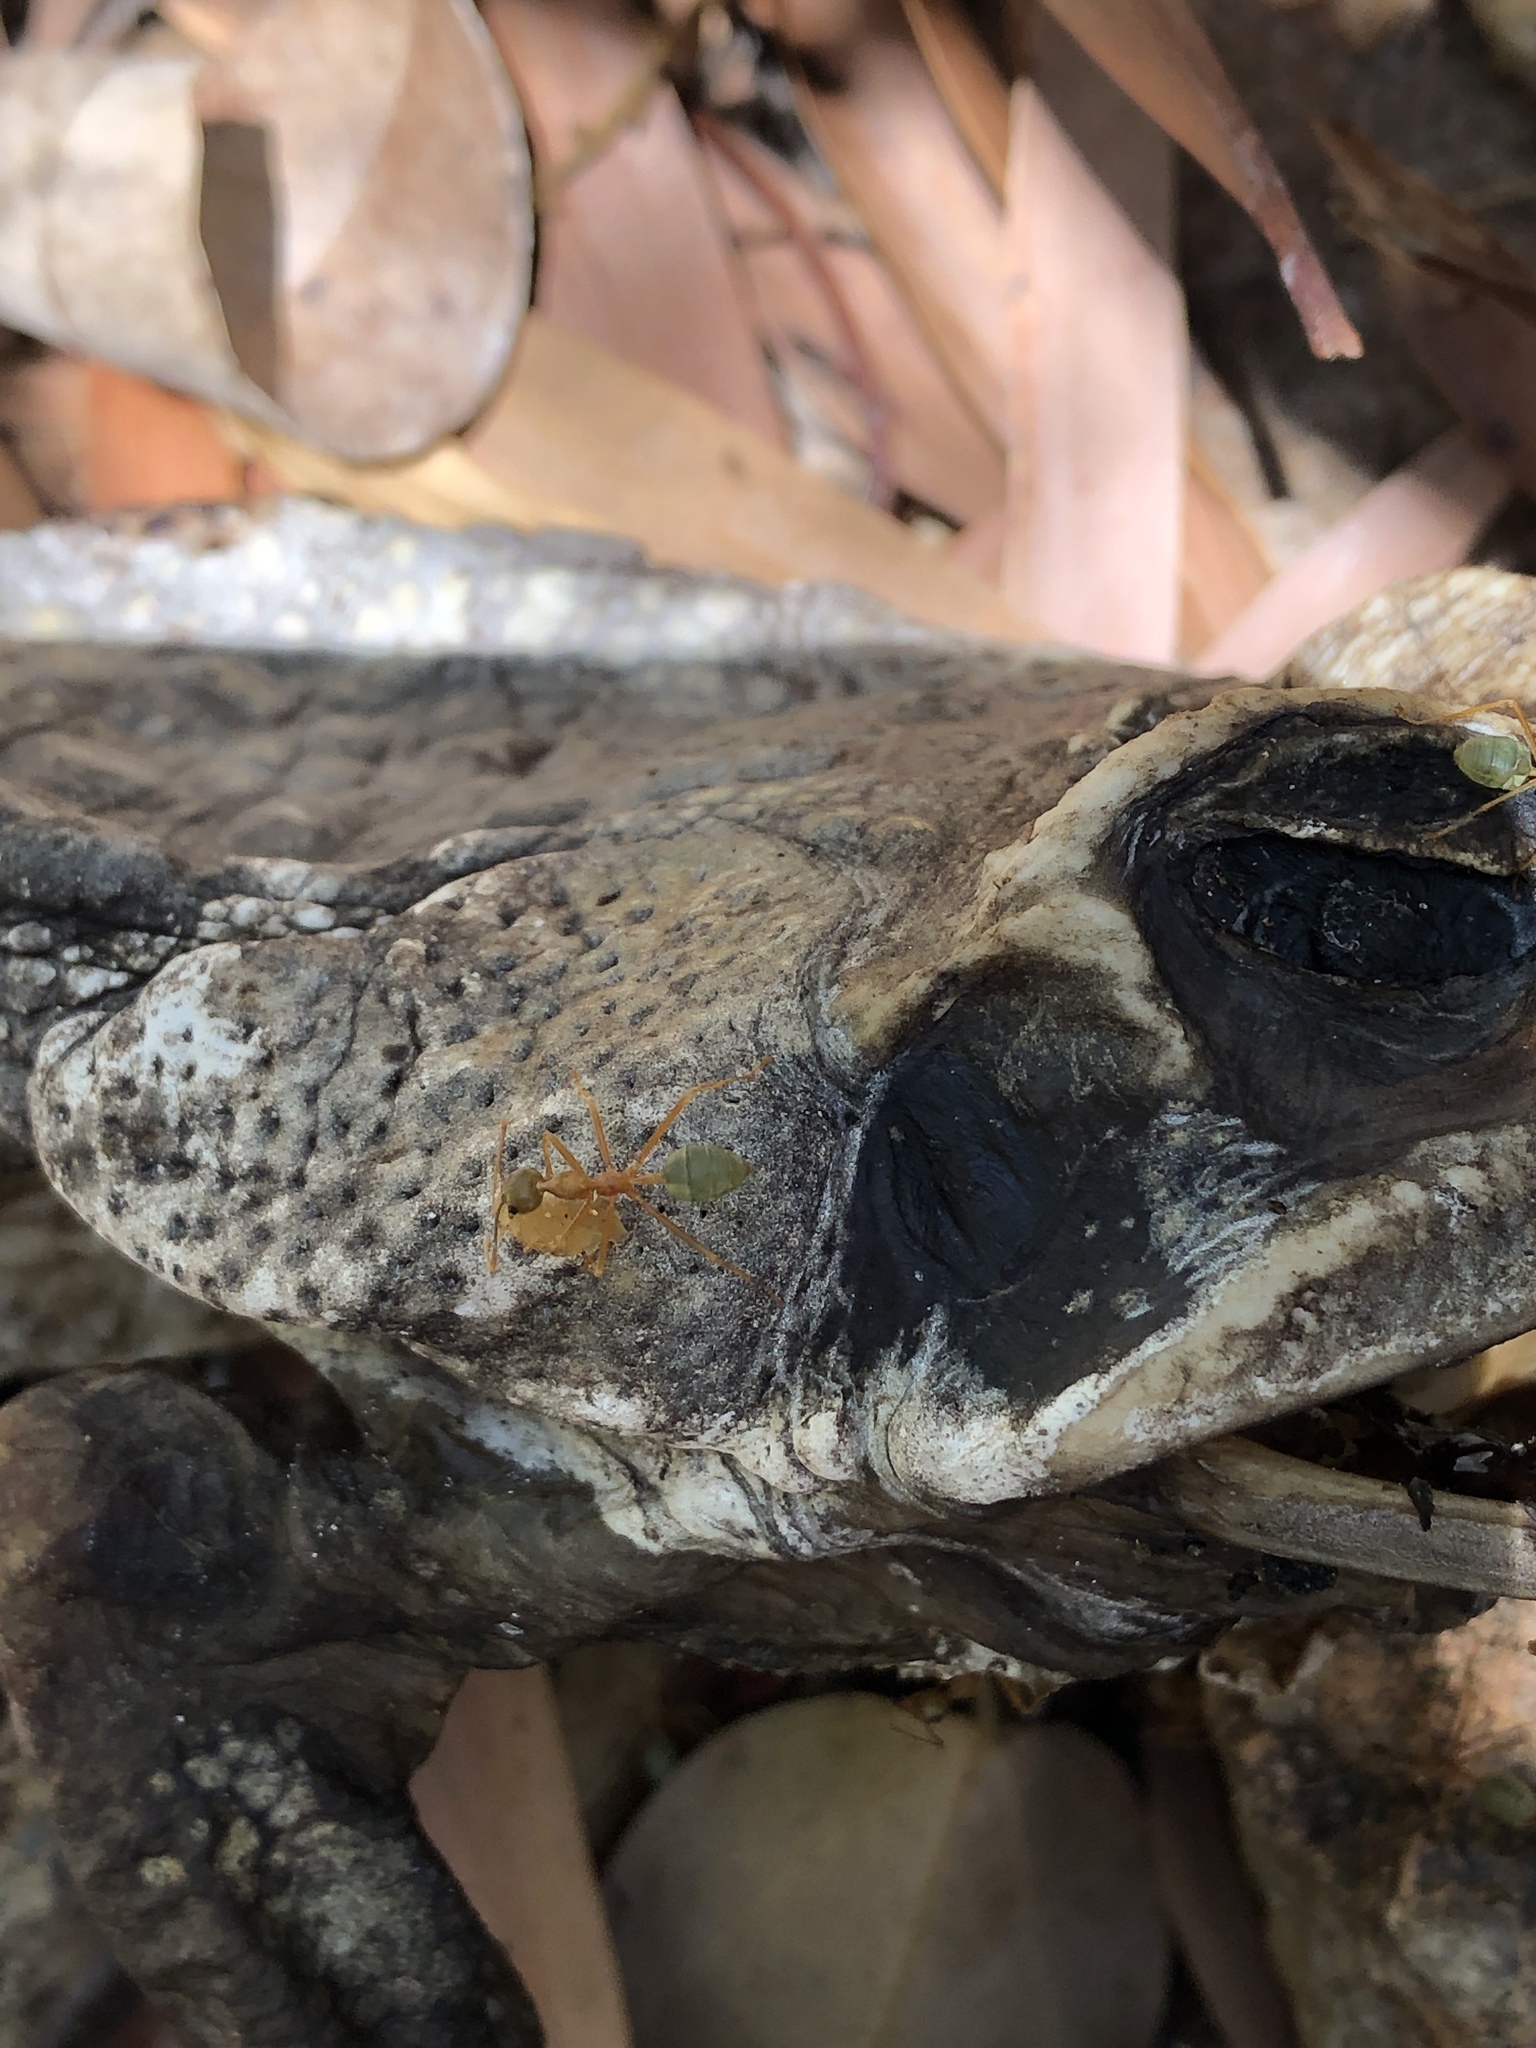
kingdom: Animalia
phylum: Chordata
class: Amphibia
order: Anura
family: Bufonidae
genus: Rhinella
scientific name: Rhinella marina
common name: Cane toad
